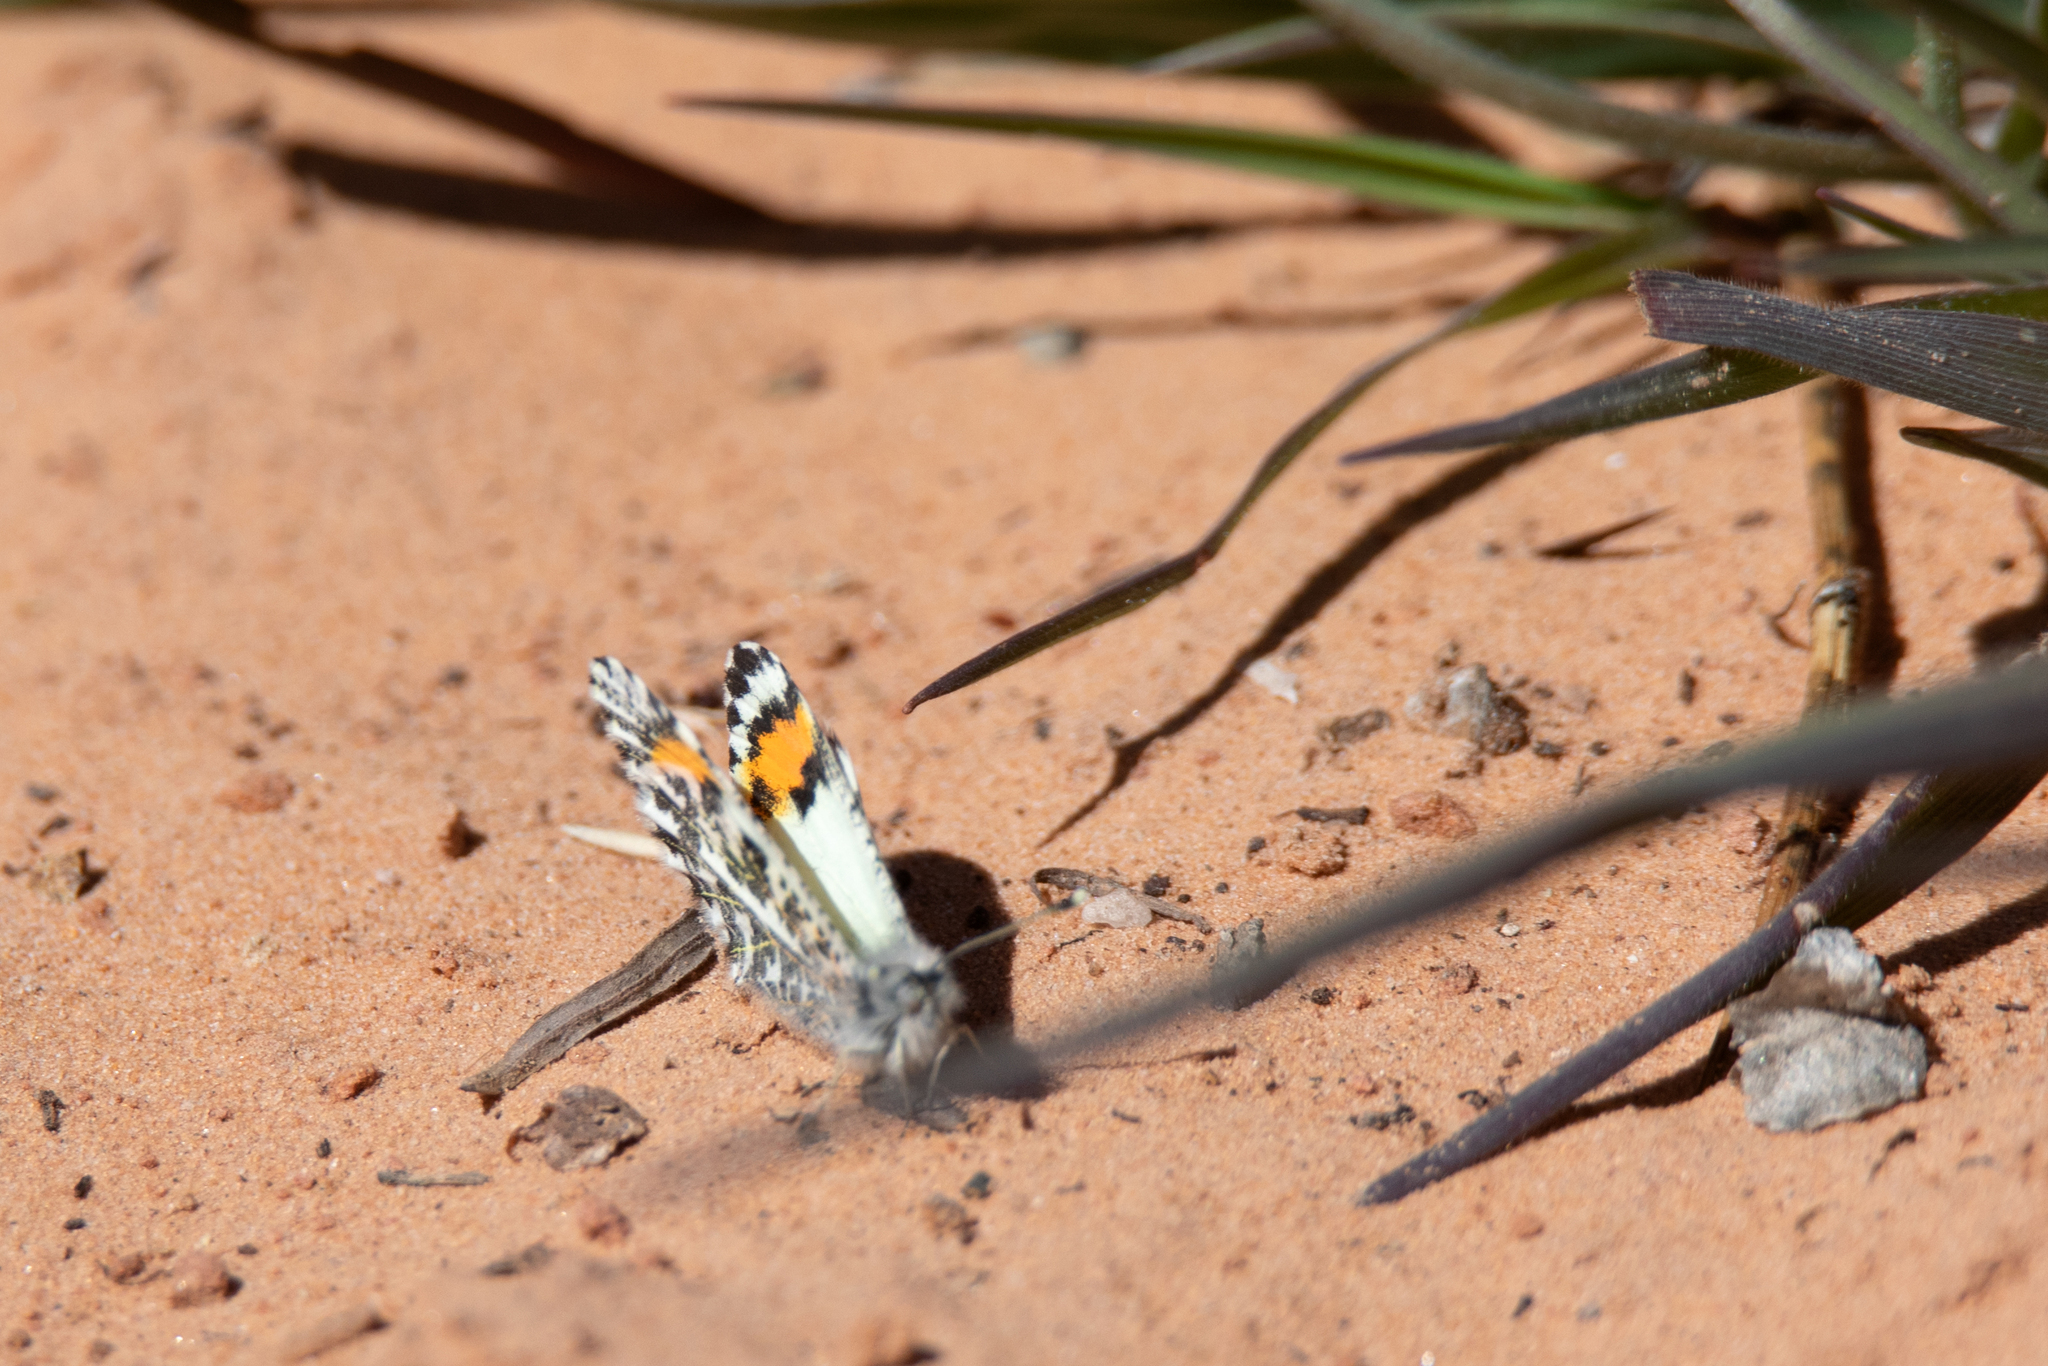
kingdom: Animalia
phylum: Arthropoda
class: Insecta
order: Lepidoptera
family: Pieridae
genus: Anthocharis
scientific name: Anthocharis thoosa
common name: Southwestern orangetip
